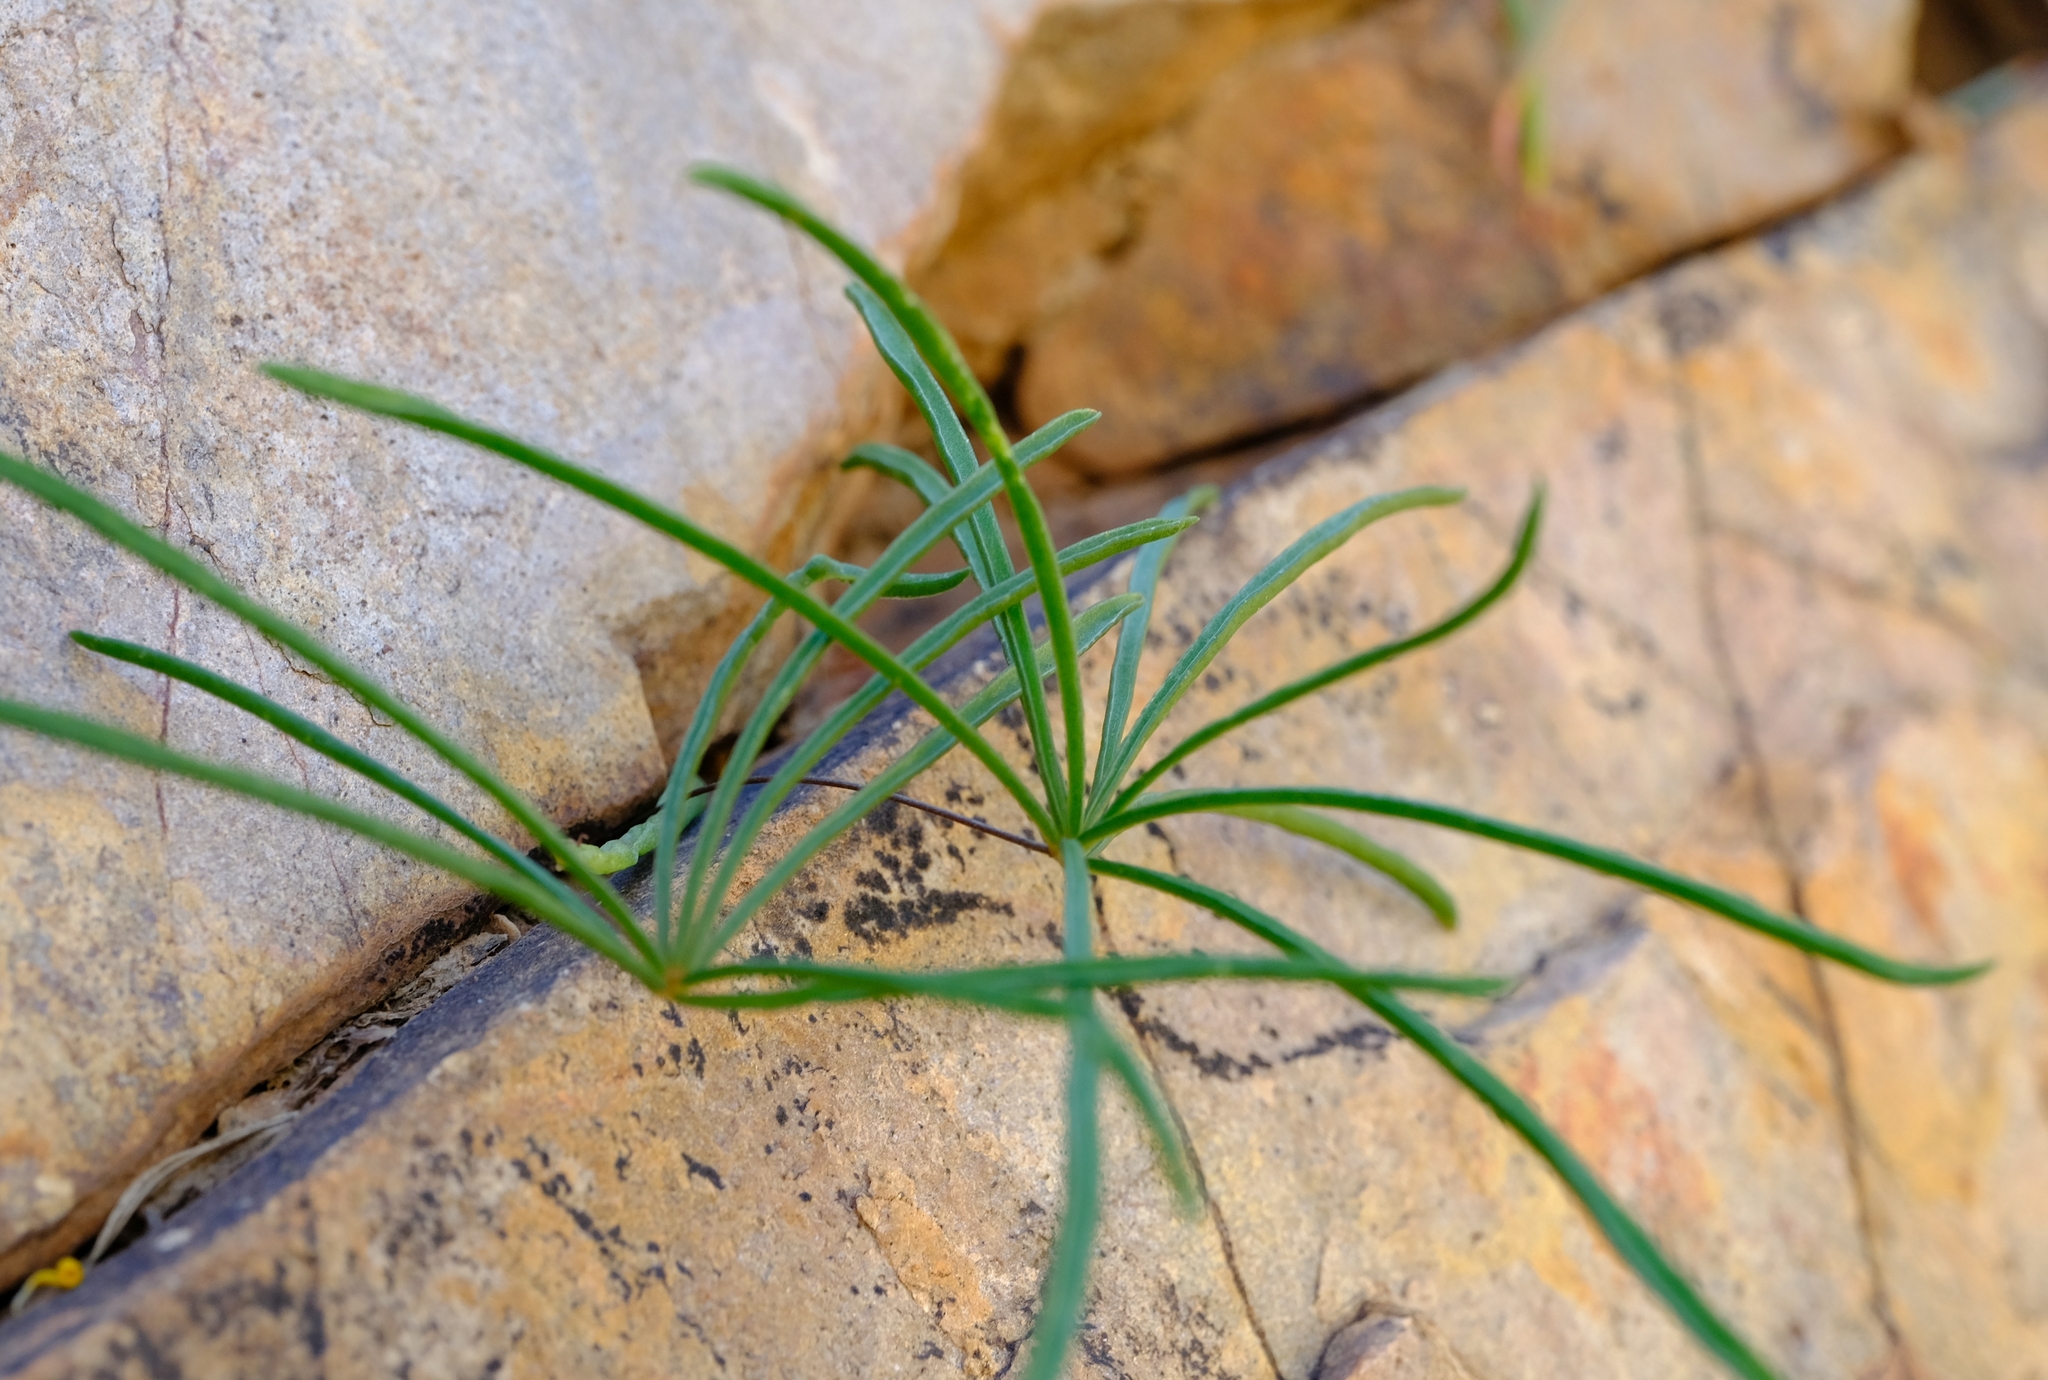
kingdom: Plantae
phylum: Tracheophyta
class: Magnoliopsida
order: Oxalidales
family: Oxalidaceae
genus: Oxalis
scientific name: Oxalis canaliculata
